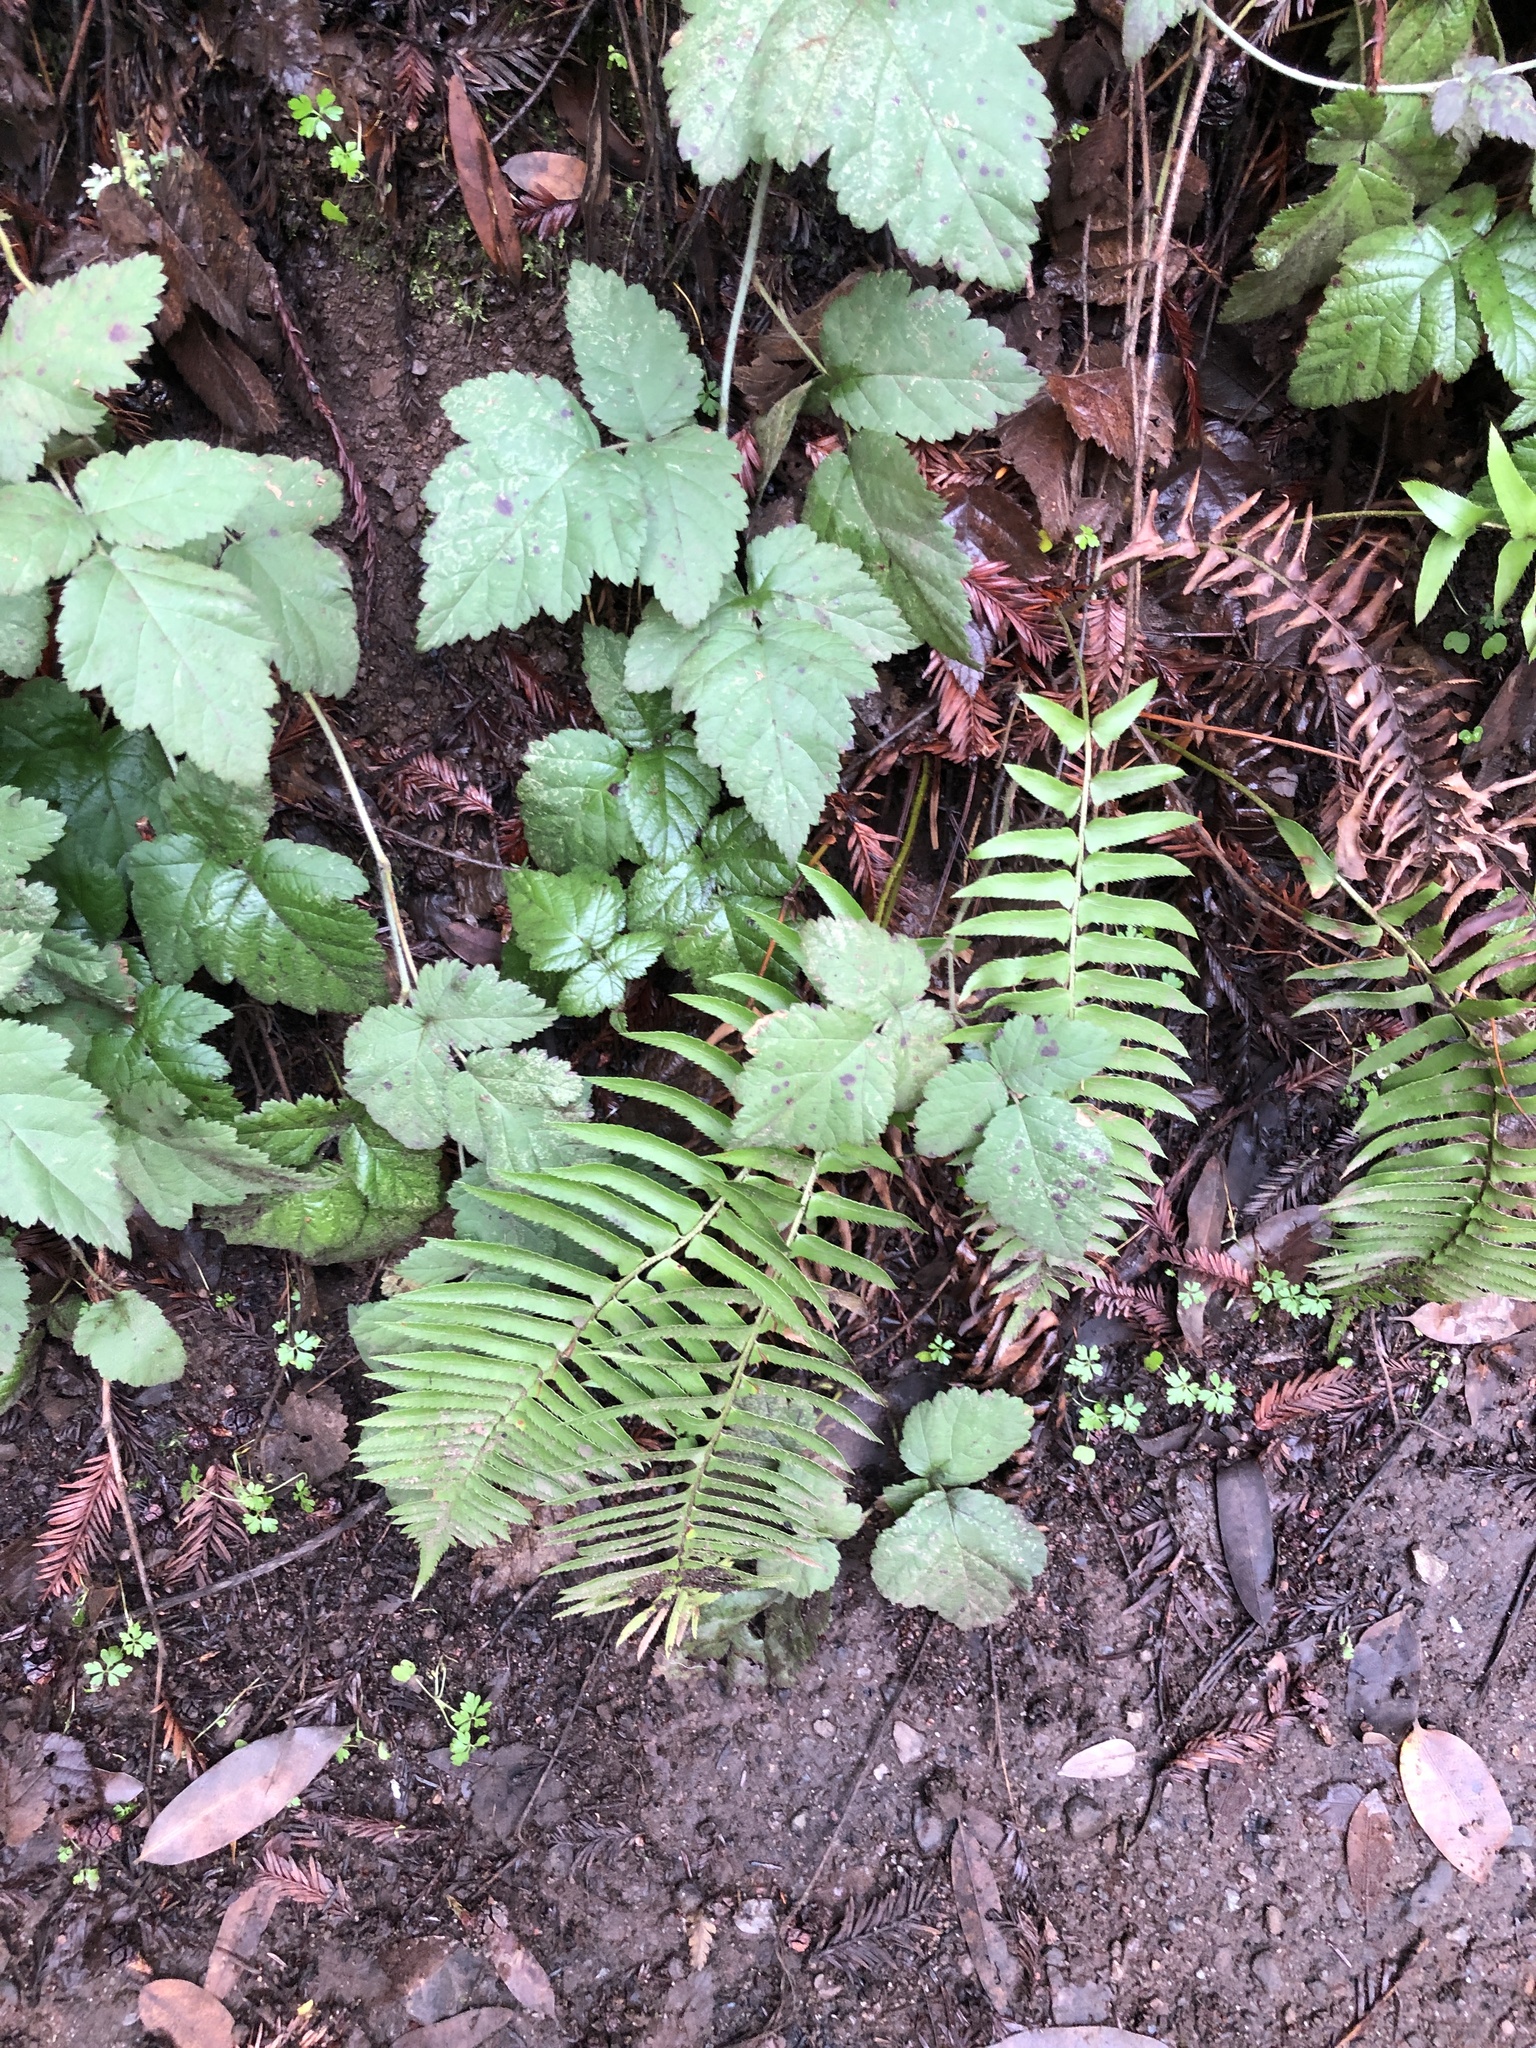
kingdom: Plantae
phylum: Tracheophyta
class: Polypodiopsida
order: Polypodiales
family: Dryopteridaceae
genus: Polystichum
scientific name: Polystichum munitum
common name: Western sword-fern
